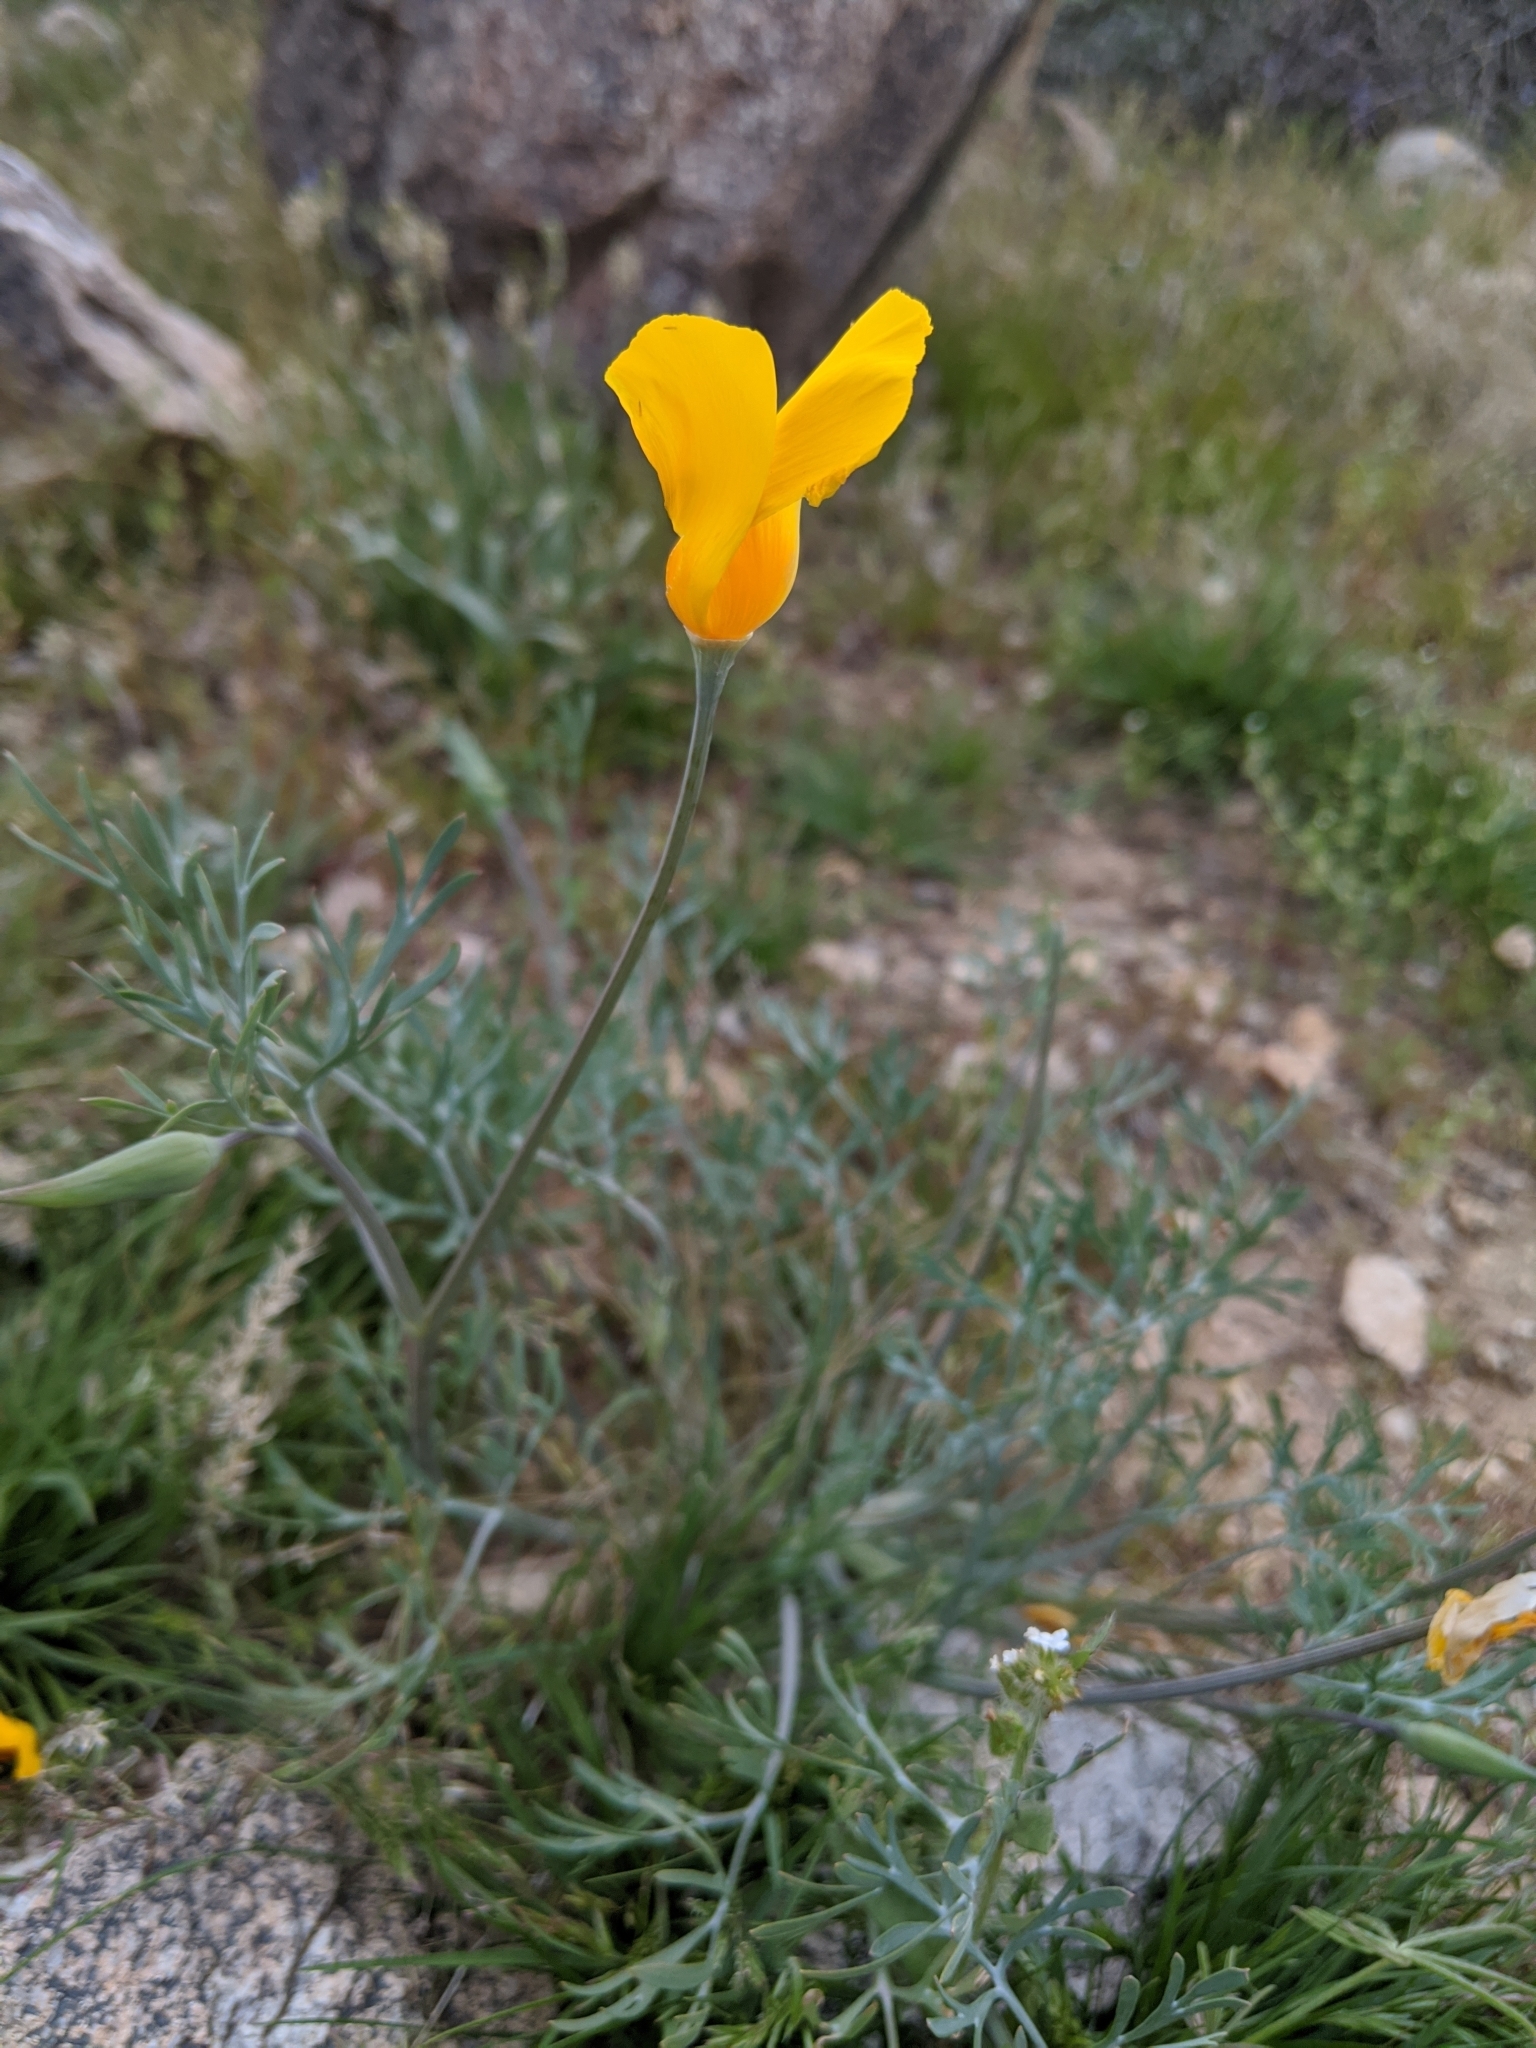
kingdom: Plantae
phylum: Tracheophyta
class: Magnoliopsida
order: Ranunculales
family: Papaveraceae
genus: Eschscholzia
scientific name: Eschscholzia californica
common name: California poppy
